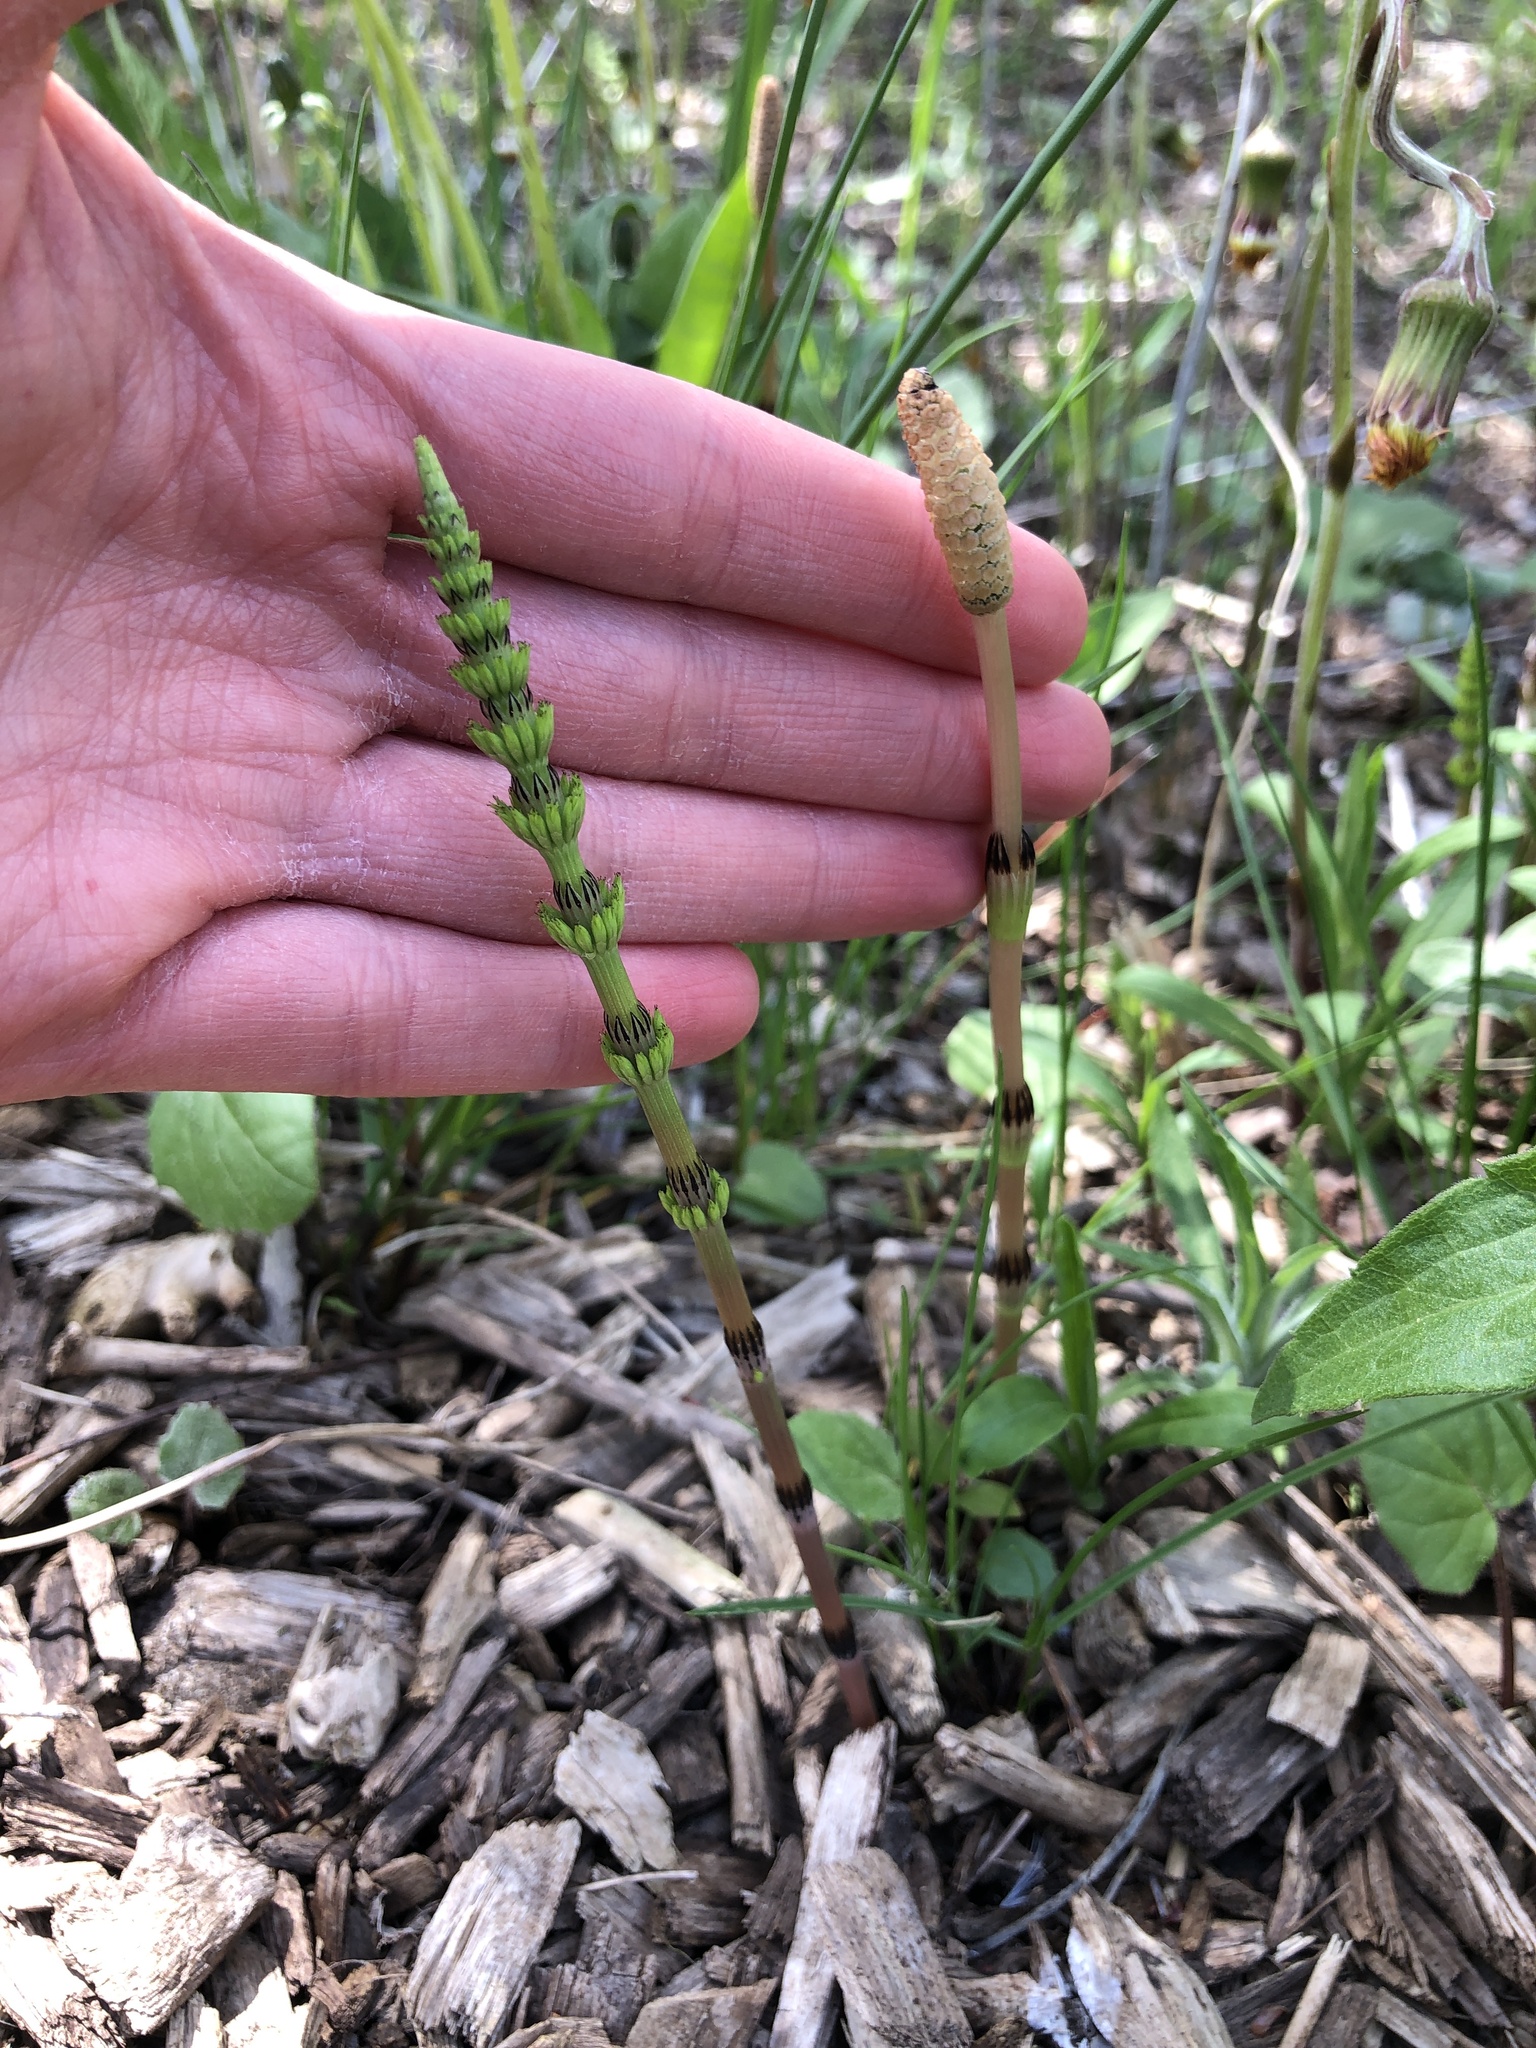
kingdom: Plantae
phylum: Tracheophyta
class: Polypodiopsida
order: Equisetales
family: Equisetaceae
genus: Equisetum
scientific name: Equisetum arvense
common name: Field horsetail
